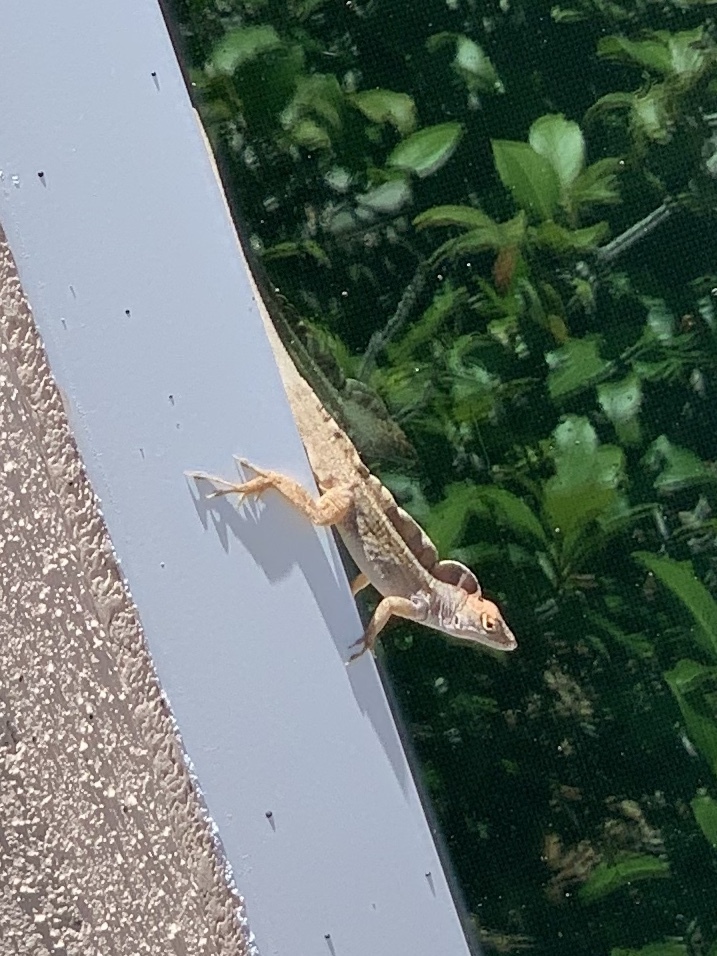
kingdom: Animalia
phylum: Chordata
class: Squamata
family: Dactyloidae
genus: Anolis
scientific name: Anolis sagrei
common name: Brown anole
